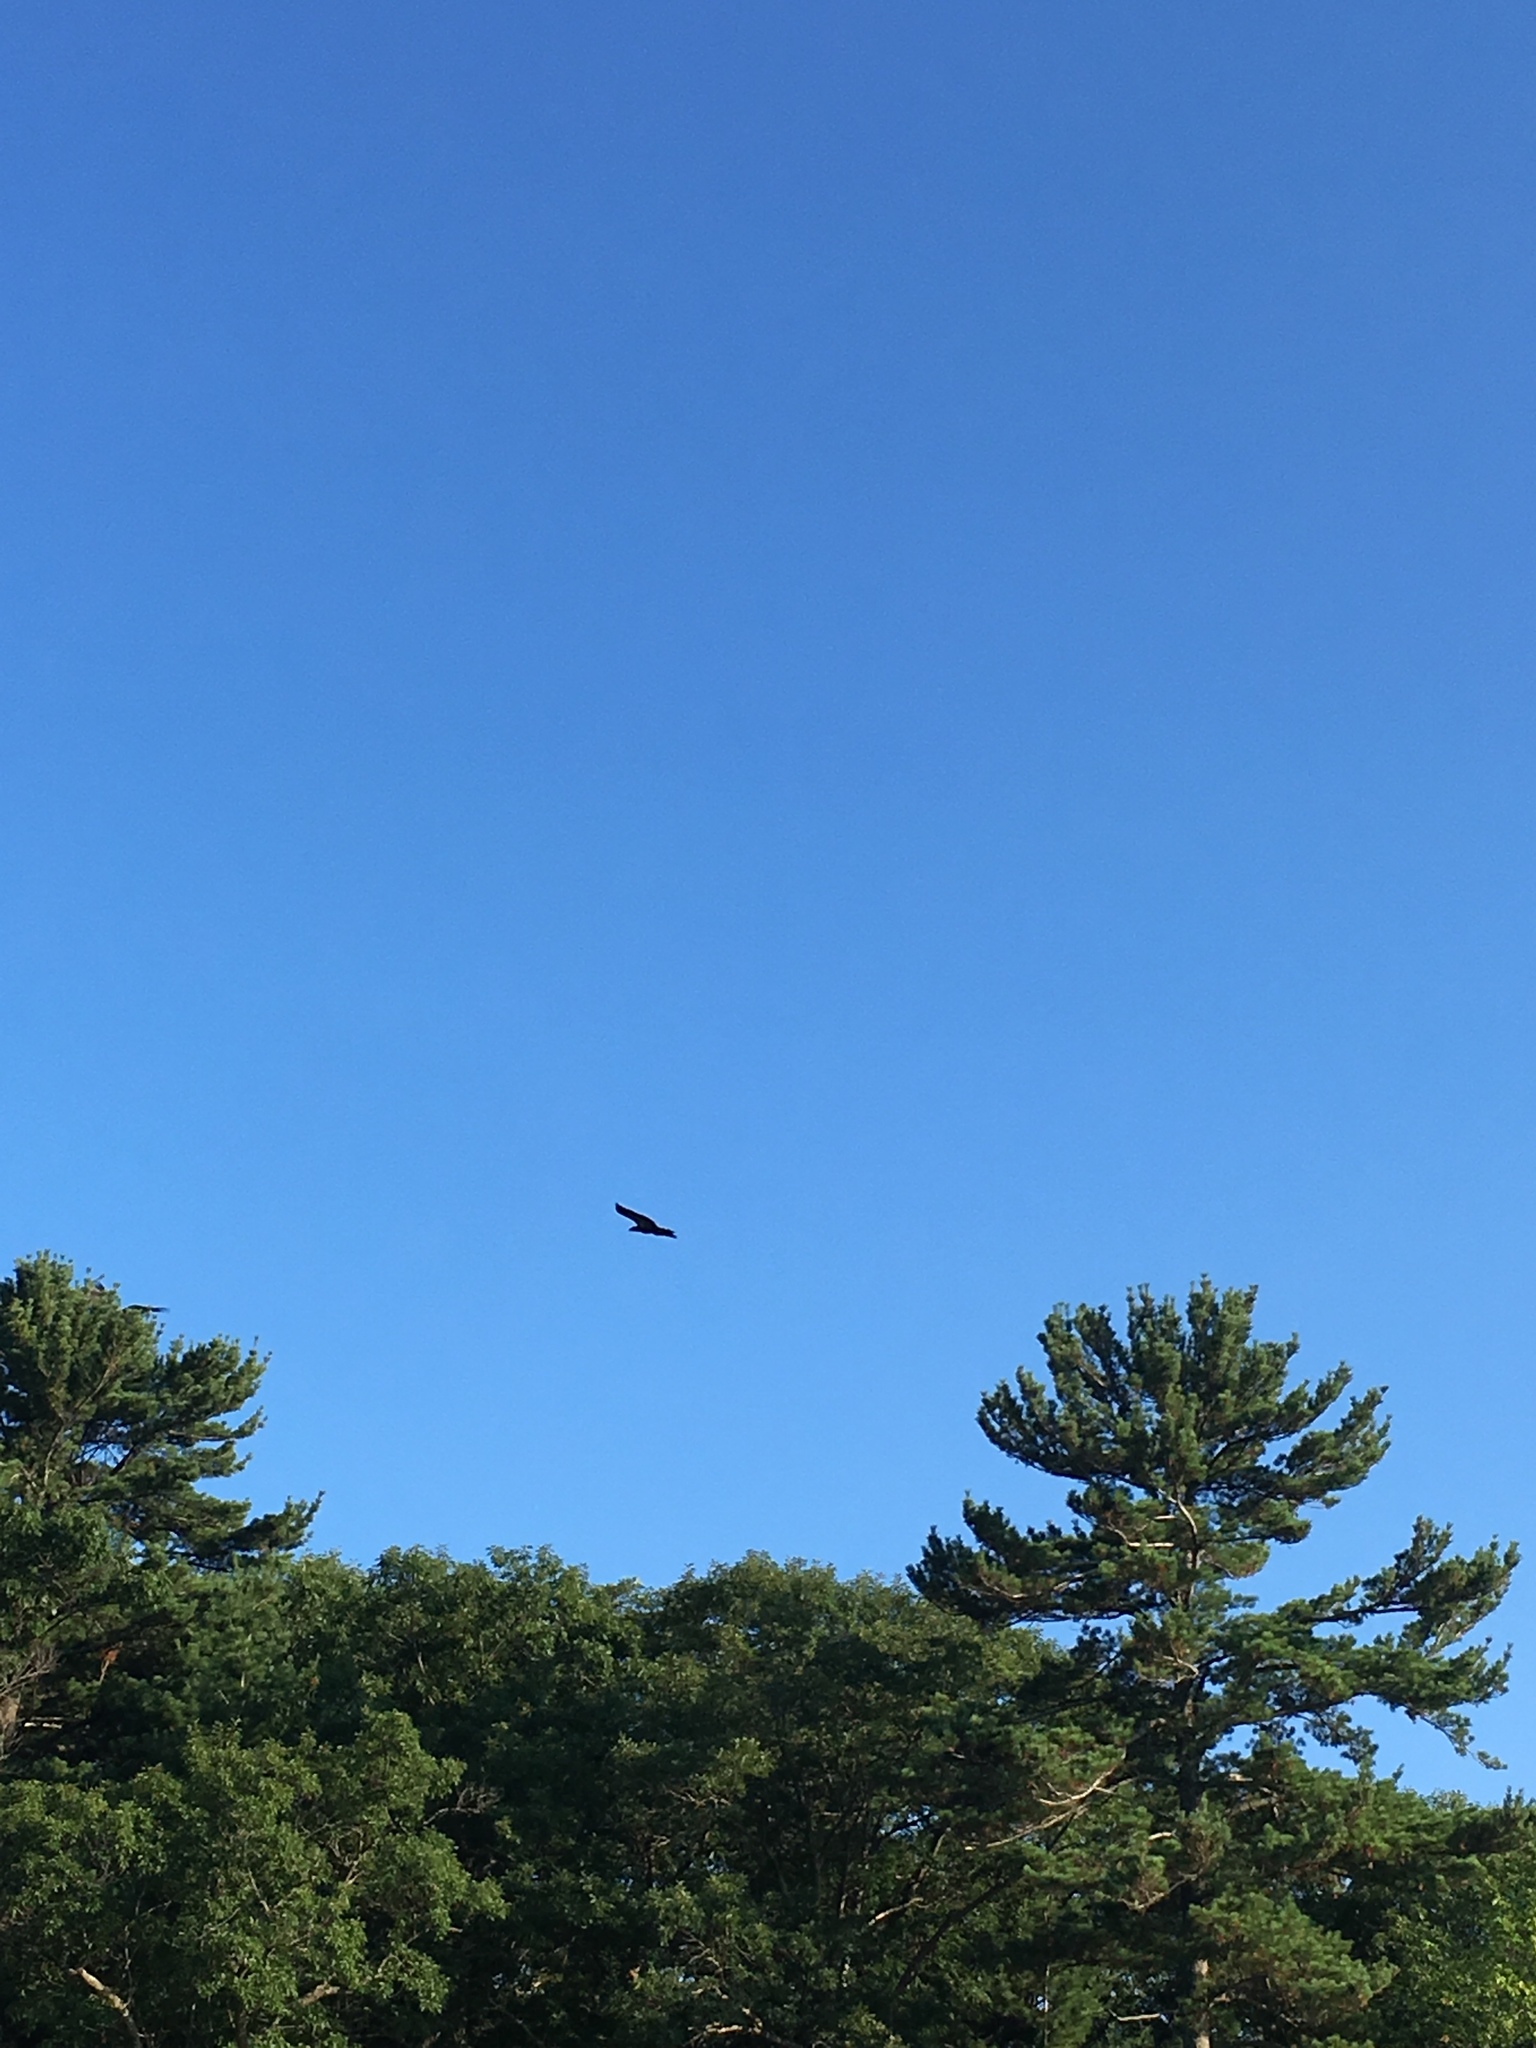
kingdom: Animalia
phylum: Chordata
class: Aves
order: Accipitriformes
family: Accipitridae
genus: Haliaeetus
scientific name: Haliaeetus leucocephalus
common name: Bald eagle
